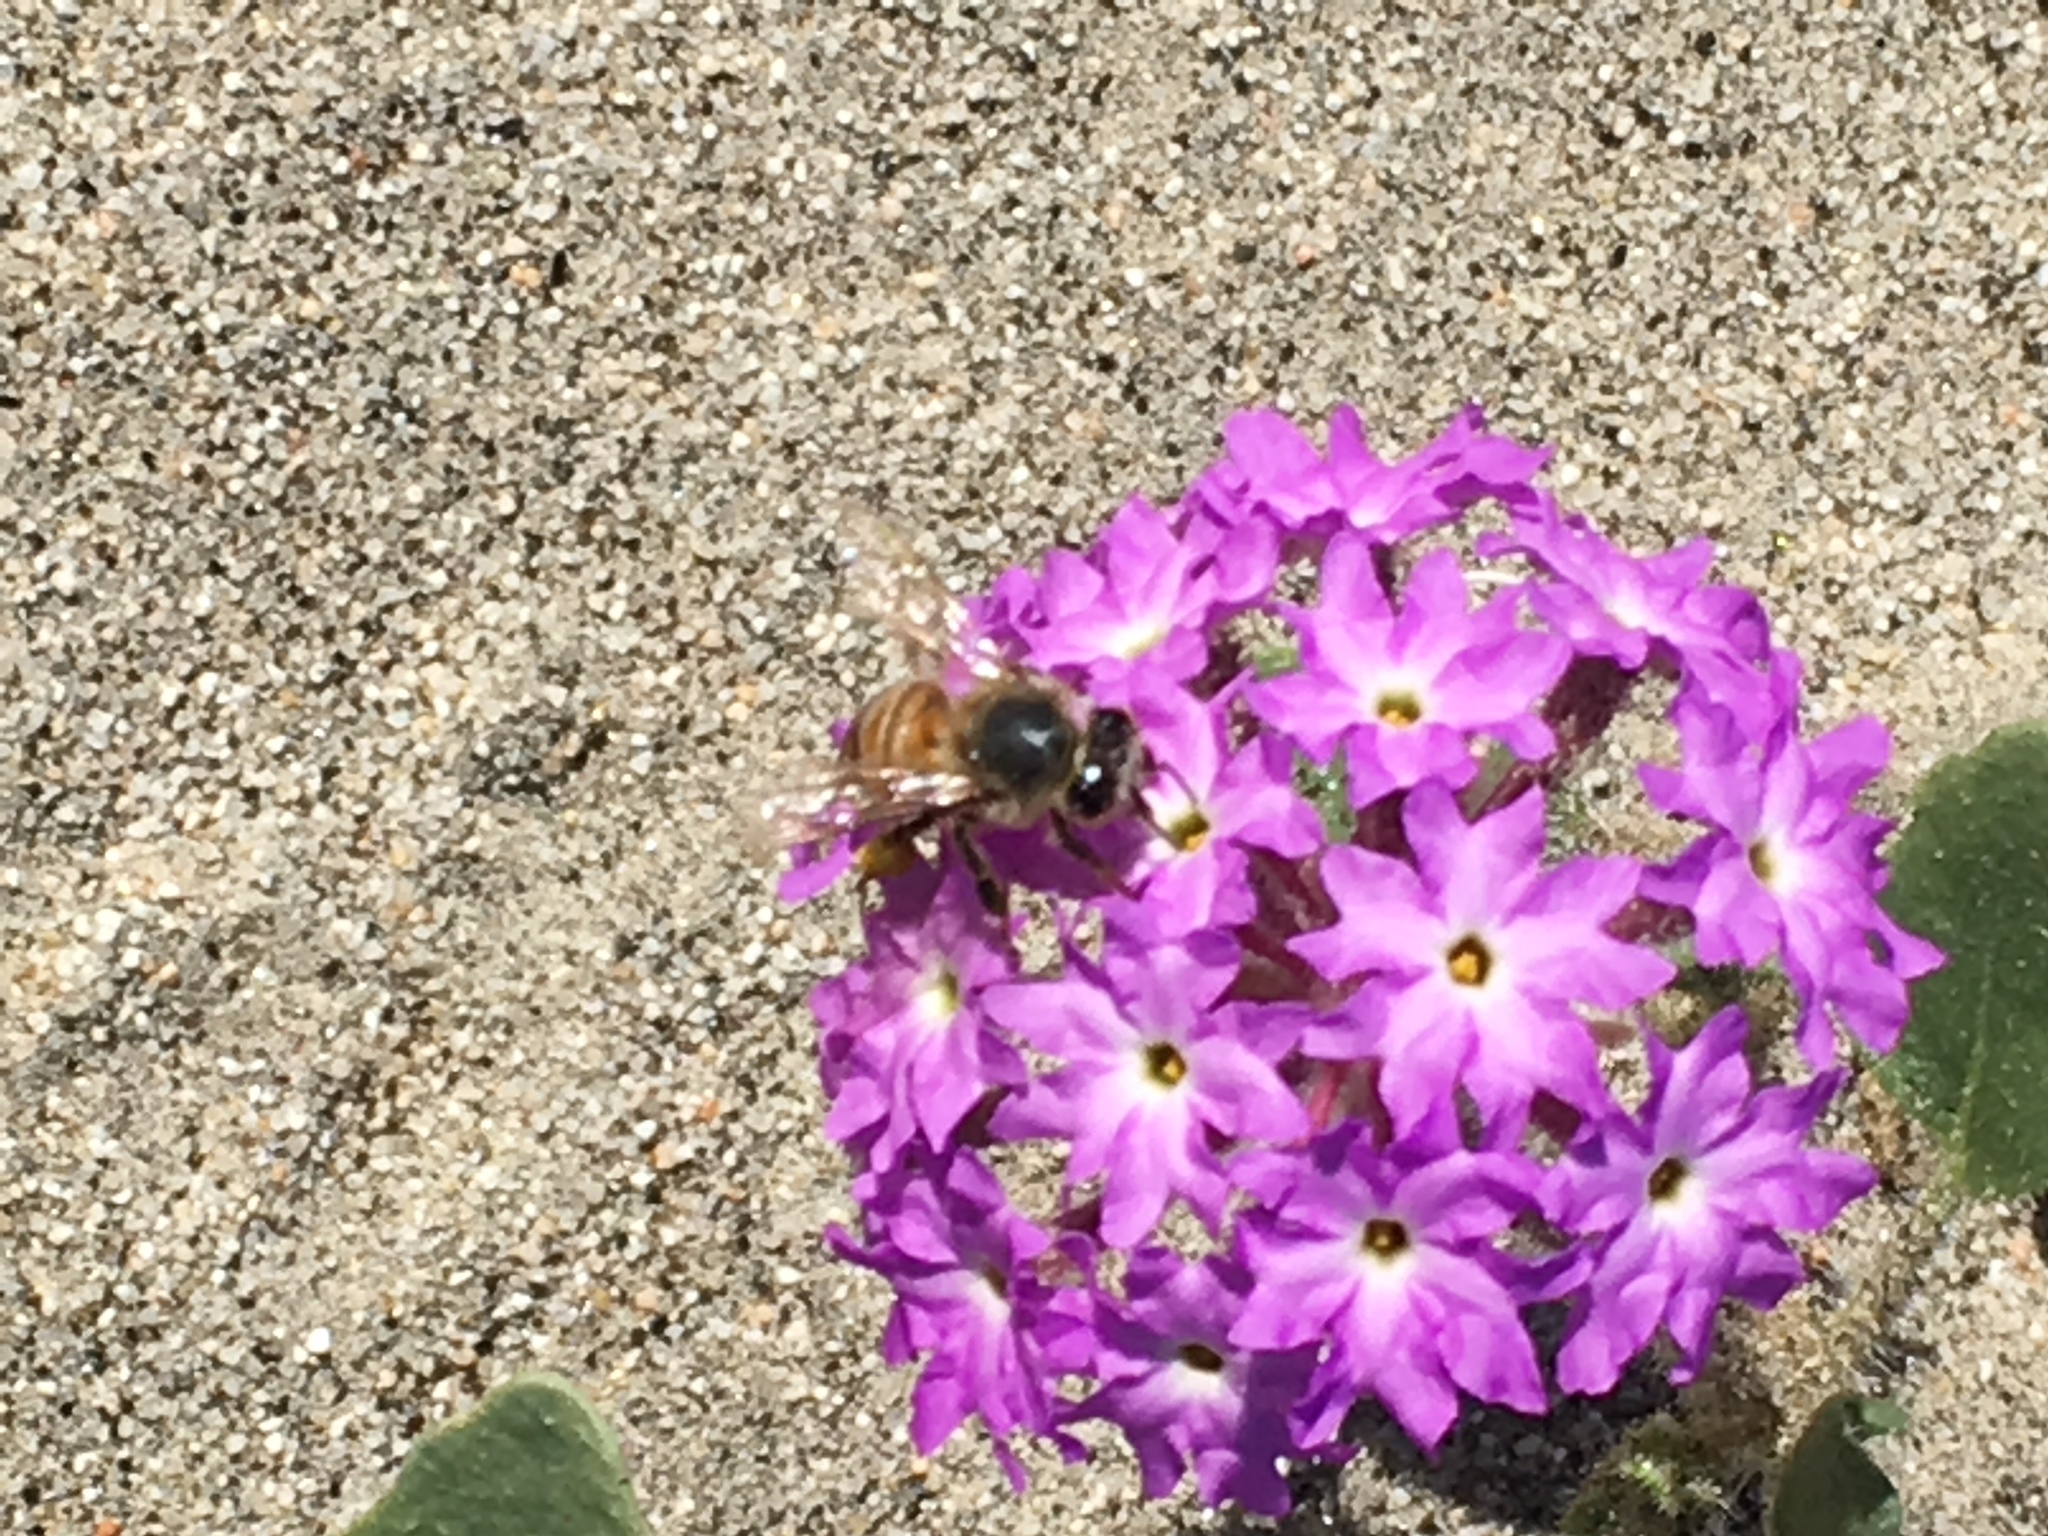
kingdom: Animalia
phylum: Arthropoda
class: Insecta
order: Hymenoptera
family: Apidae
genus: Apis
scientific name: Apis mellifera
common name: Honey bee
